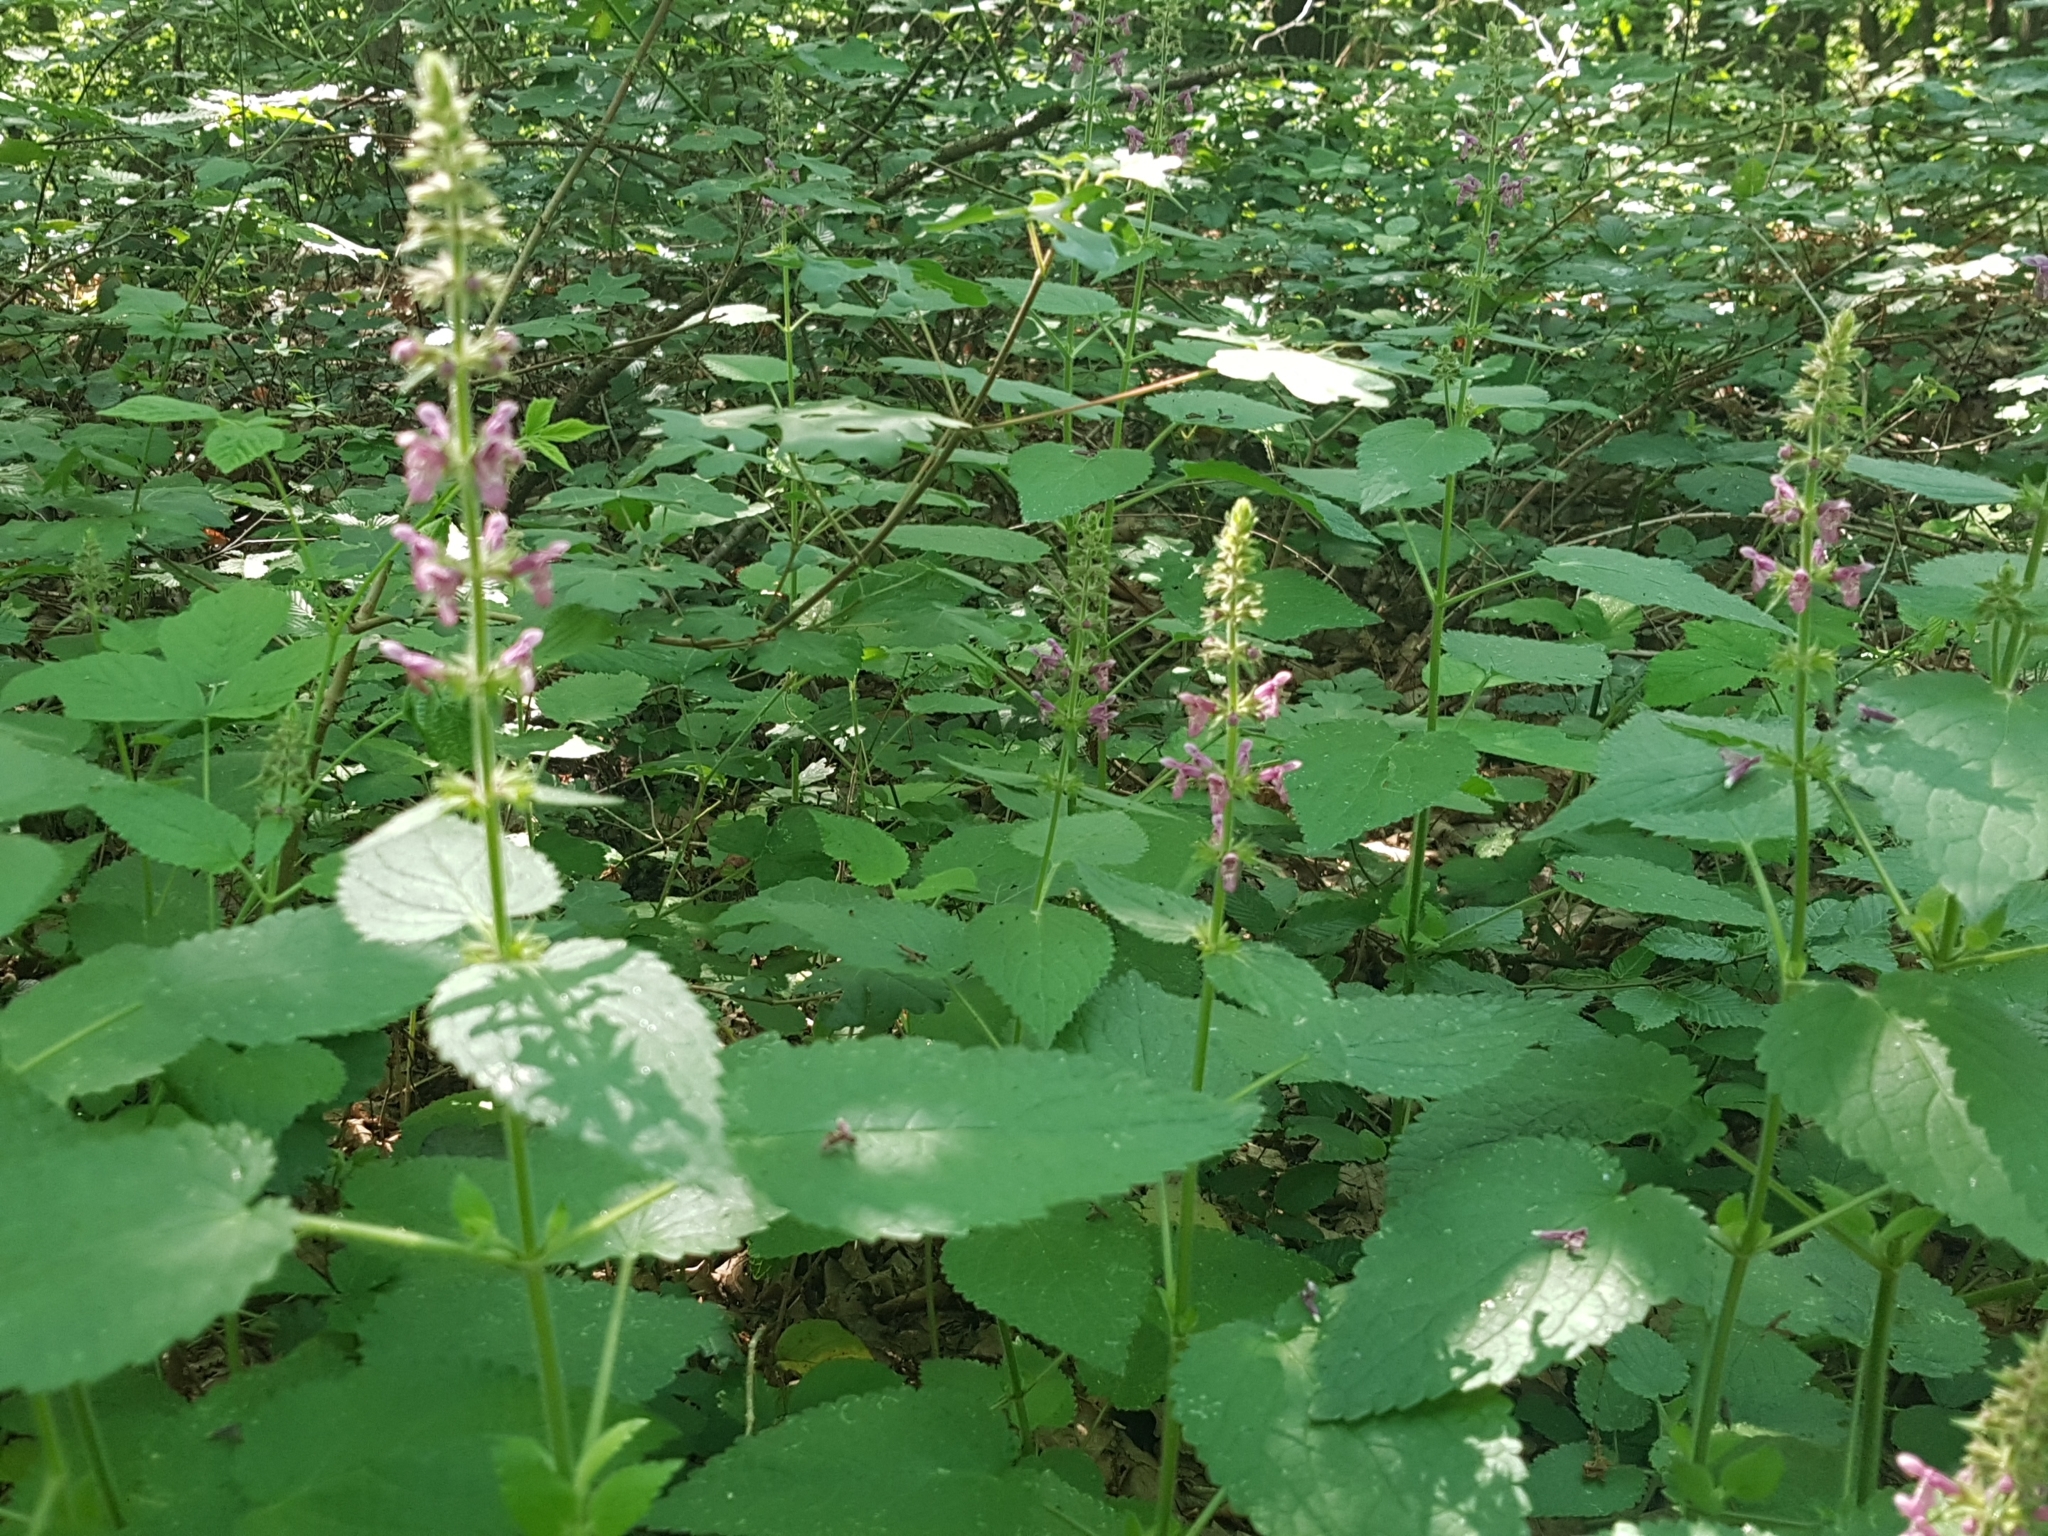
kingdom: Plantae
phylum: Tracheophyta
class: Magnoliopsida
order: Lamiales
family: Lamiaceae
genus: Stachys
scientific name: Stachys sylvatica
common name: Hedge woundwort
